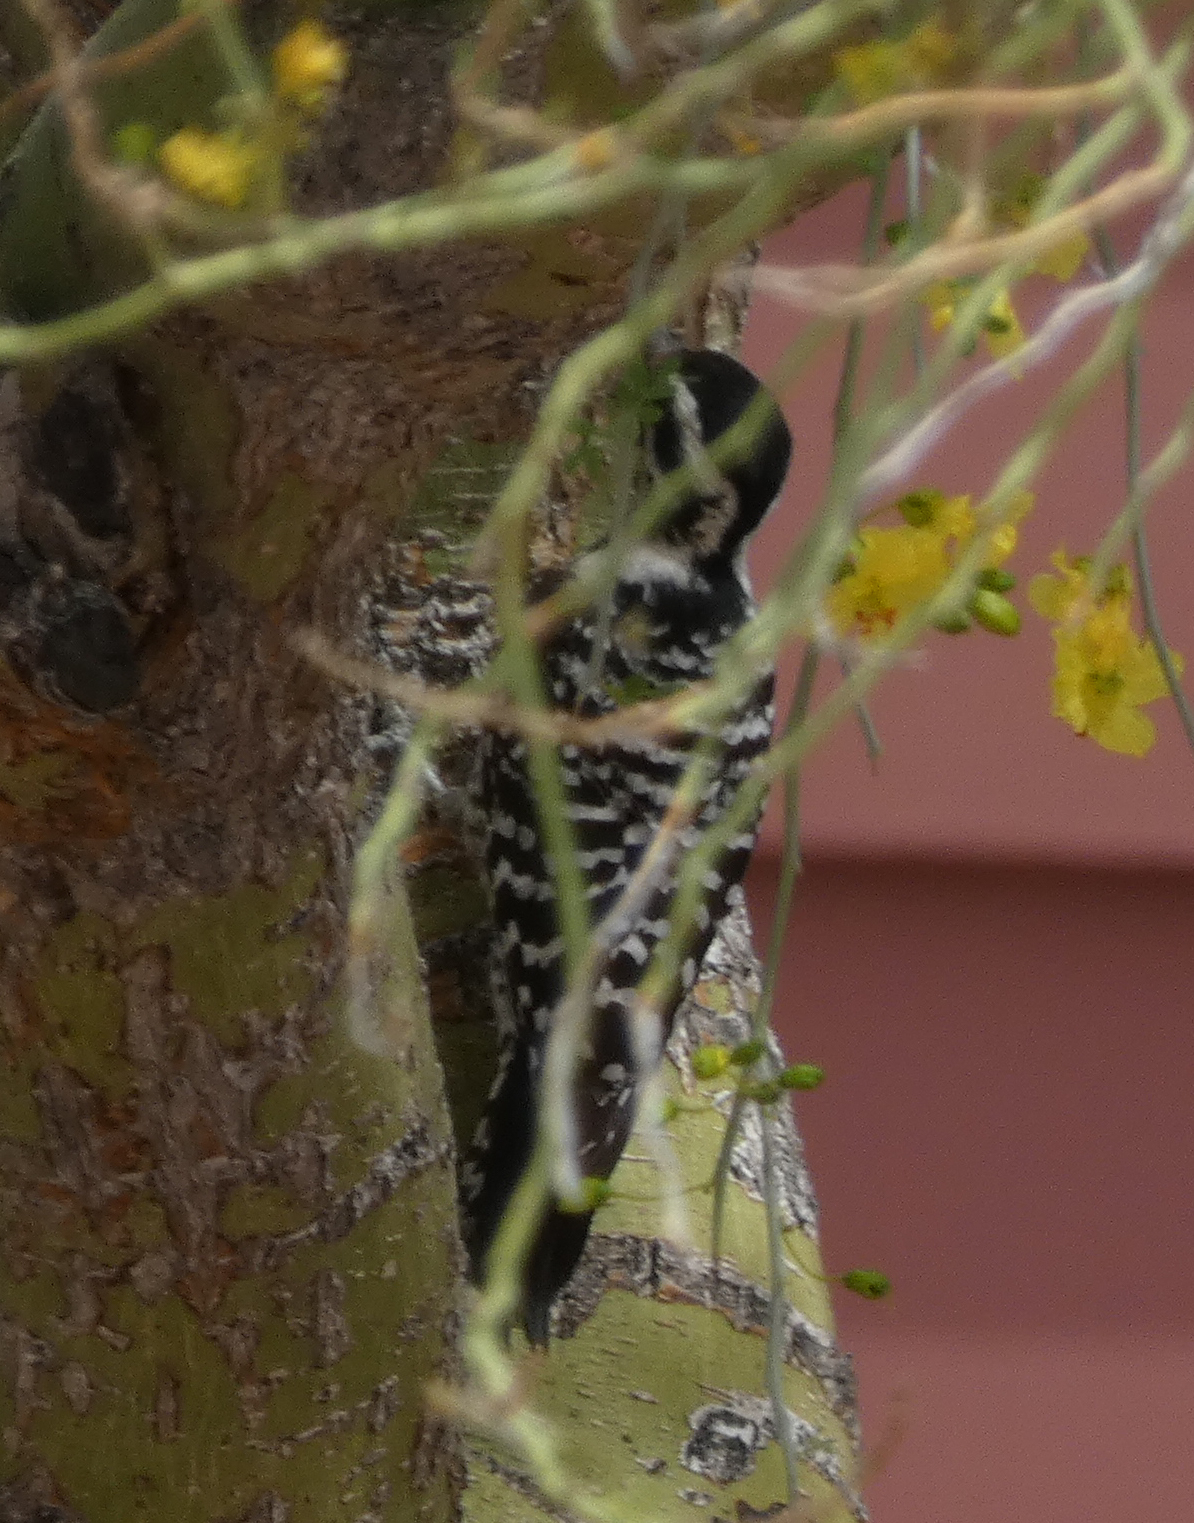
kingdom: Animalia
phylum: Chordata
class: Aves
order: Piciformes
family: Picidae
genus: Dryobates
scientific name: Dryobates scalaris
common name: Ladder-backed woodpecker
